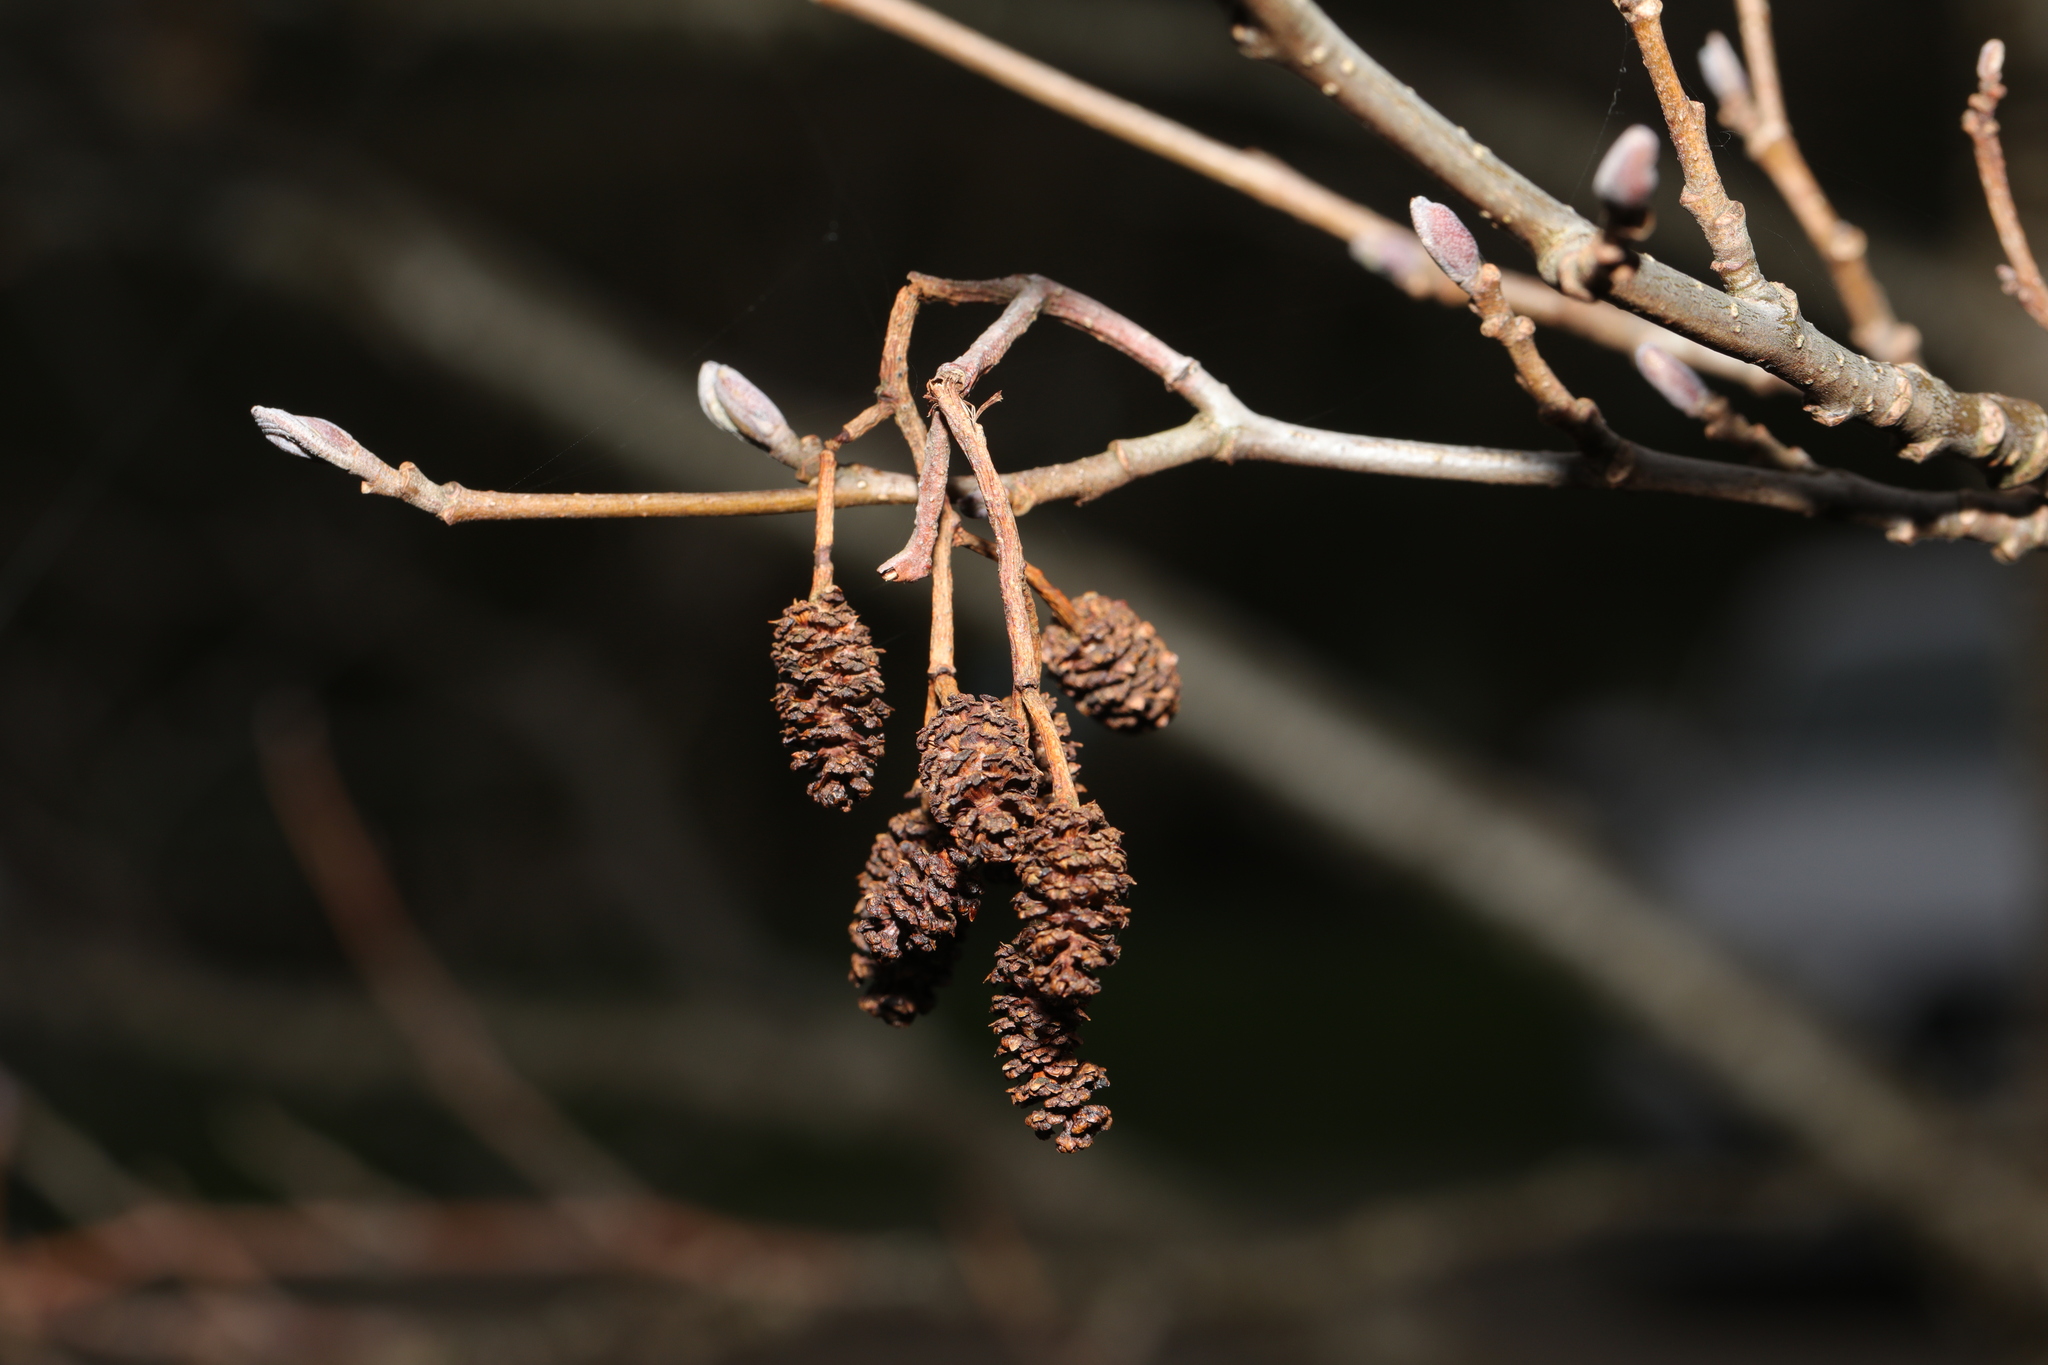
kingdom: Plantae
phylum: Tracheophyta
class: Magnoliopsida
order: Fagales
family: Betulaceae
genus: Alnus
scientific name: Alnus glutinosa
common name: Black alder
